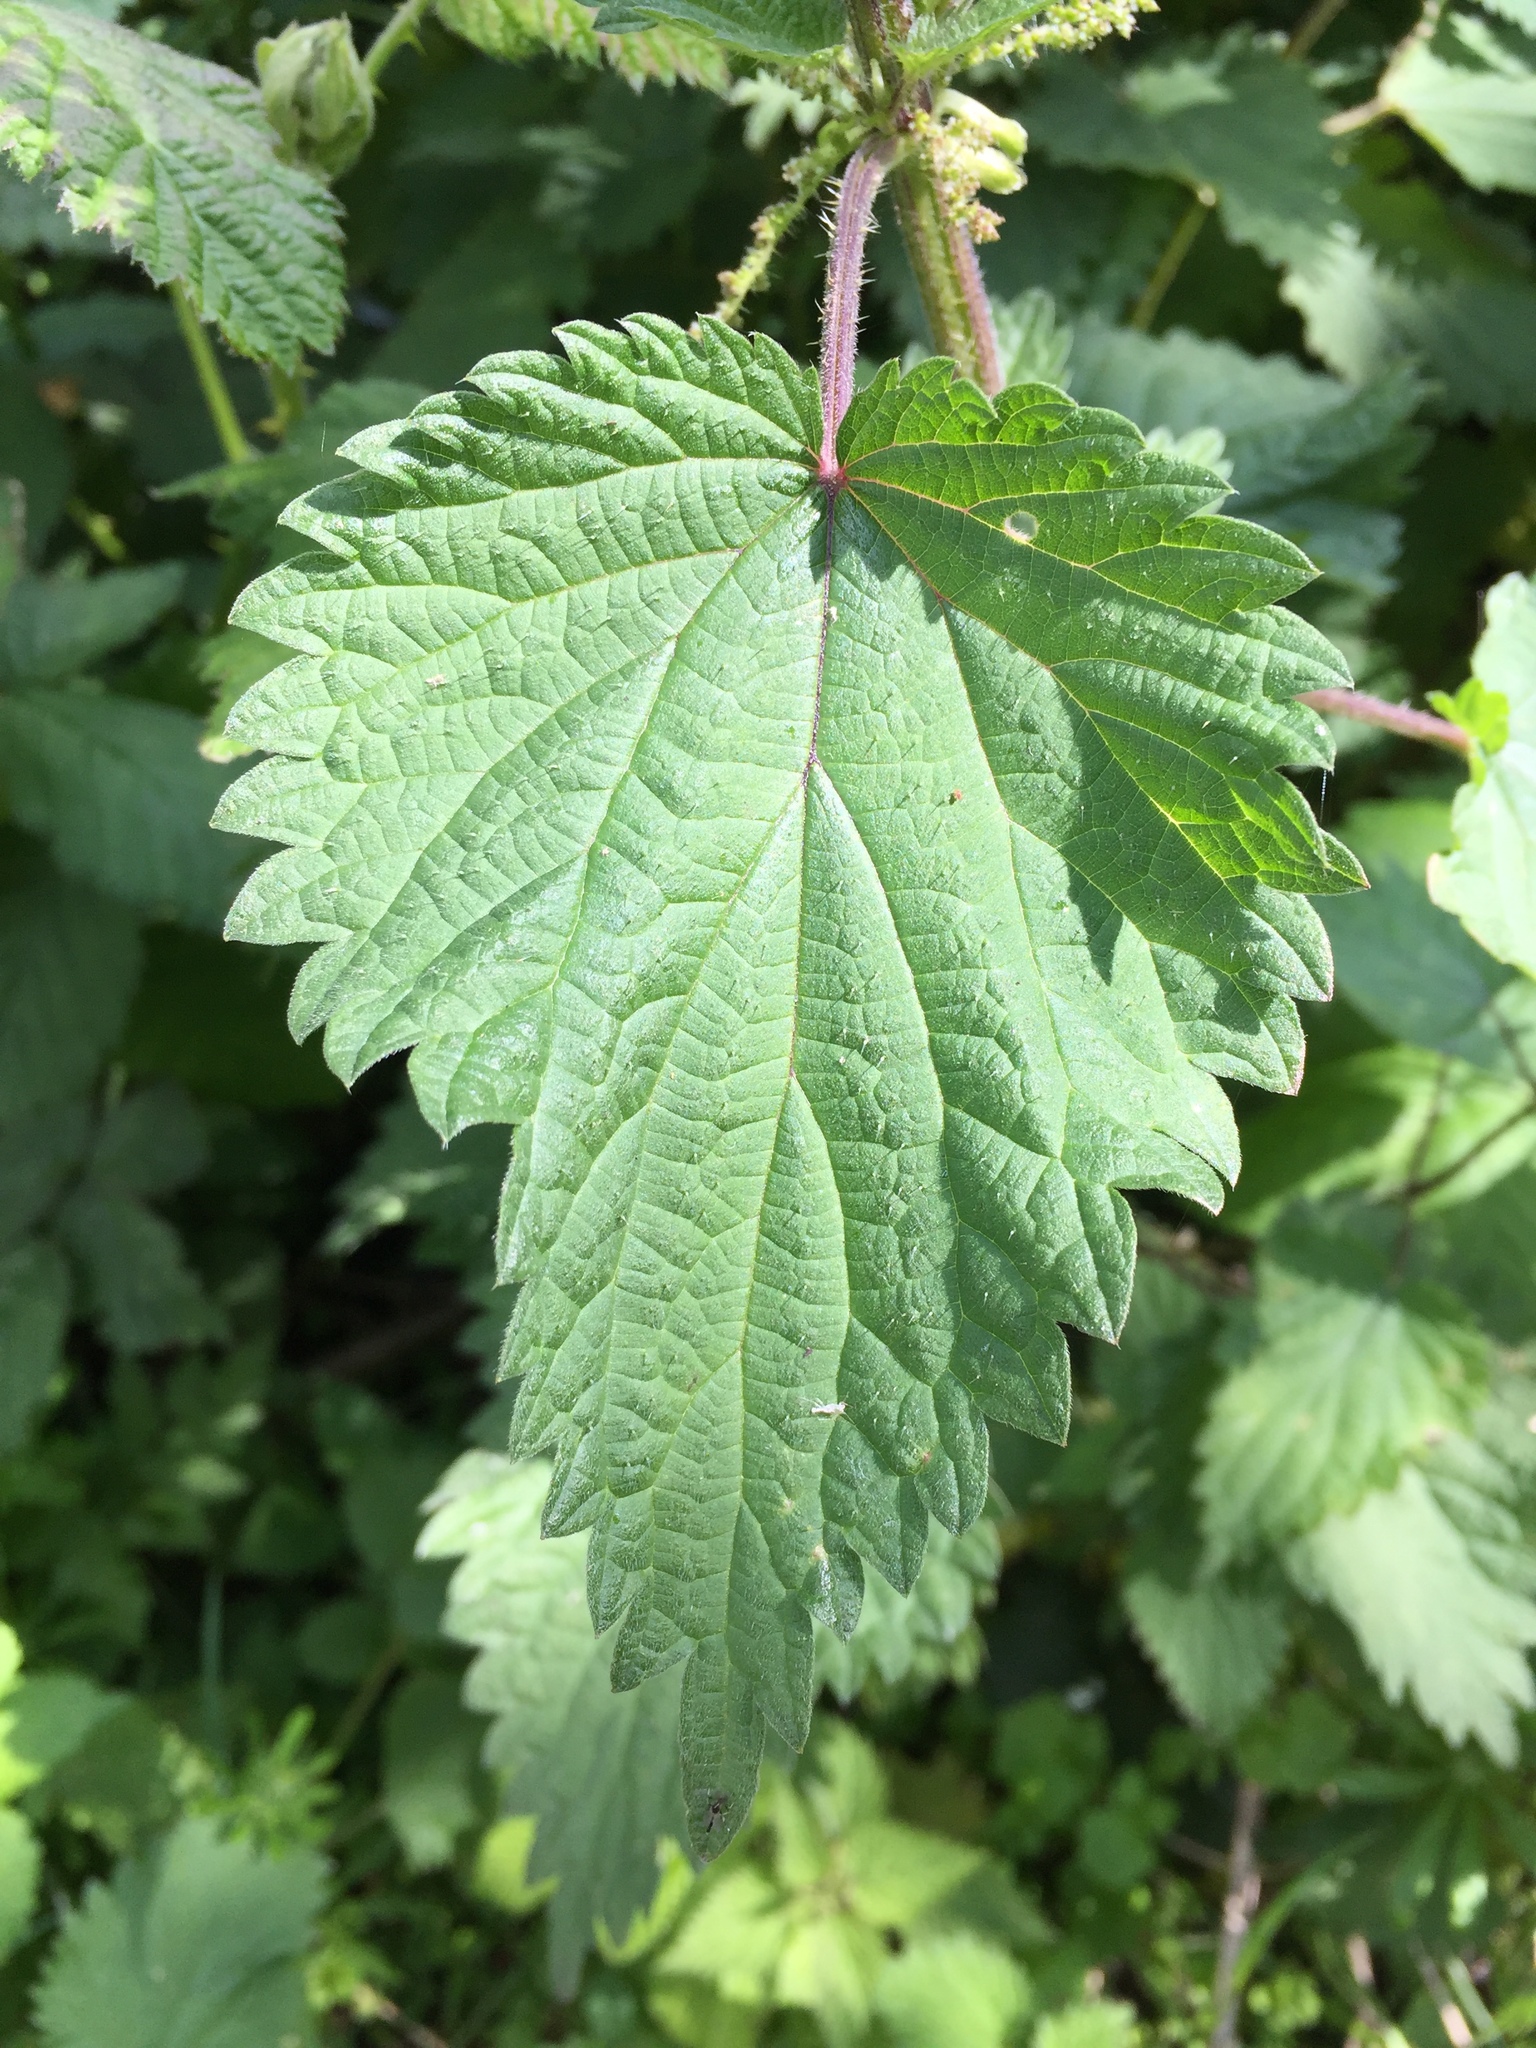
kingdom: Plantae
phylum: Tracheophyta
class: Magnoliopsida
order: Rosales
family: Urticaceae
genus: Urtica
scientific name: Urtica dioica
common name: Common nettle
